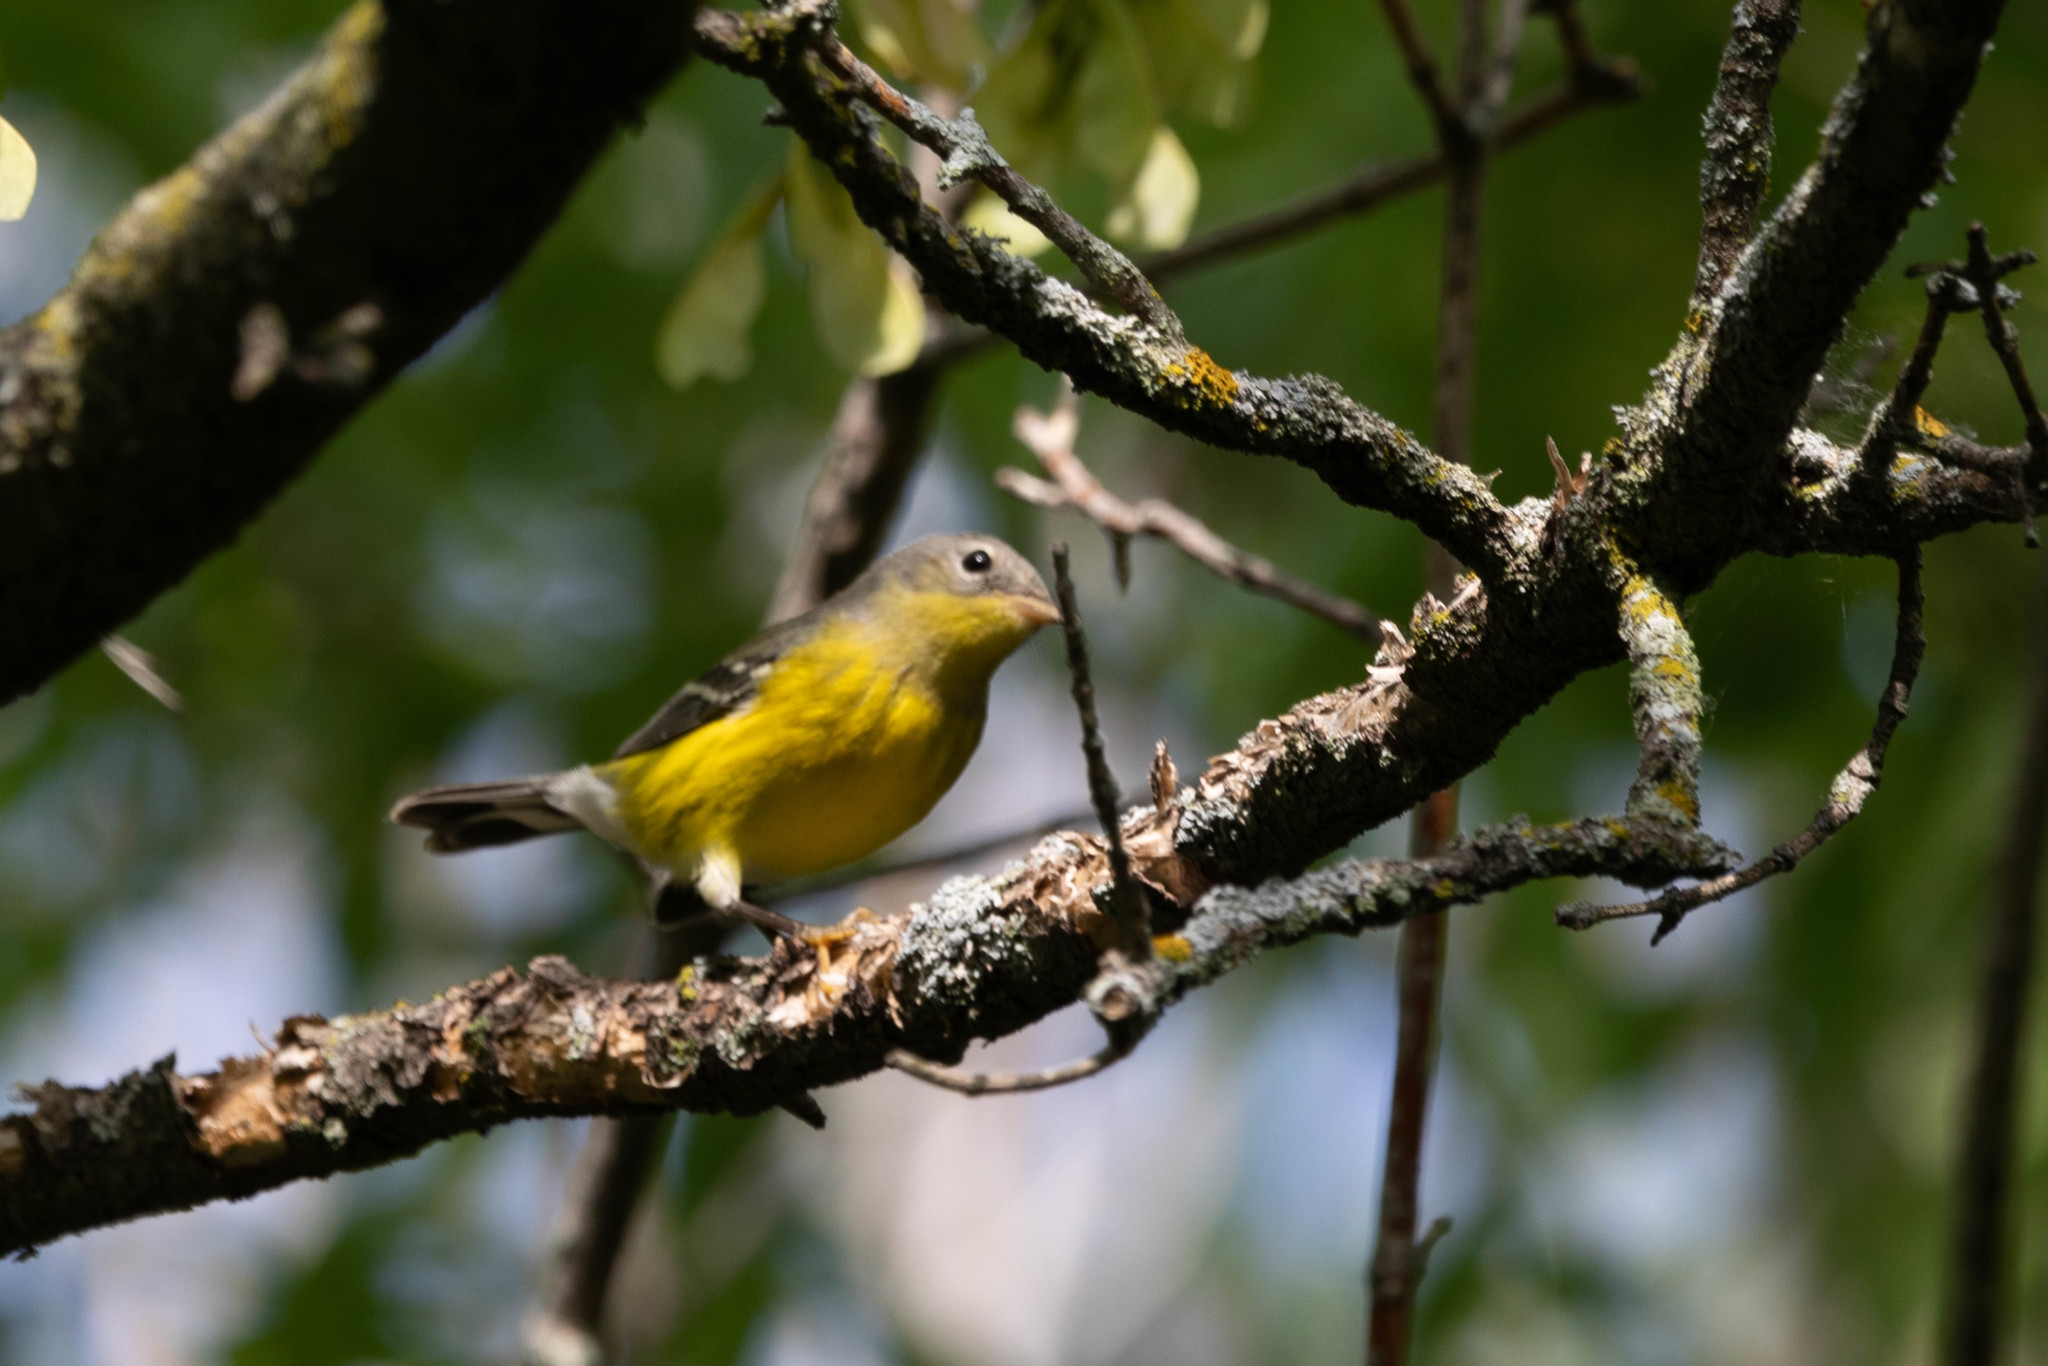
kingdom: Animalia
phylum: Chordata
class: Aves
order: Passeriformes
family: Parulidae
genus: Setophaga
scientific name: Setophaga magnolia
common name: Magnolia warbler
